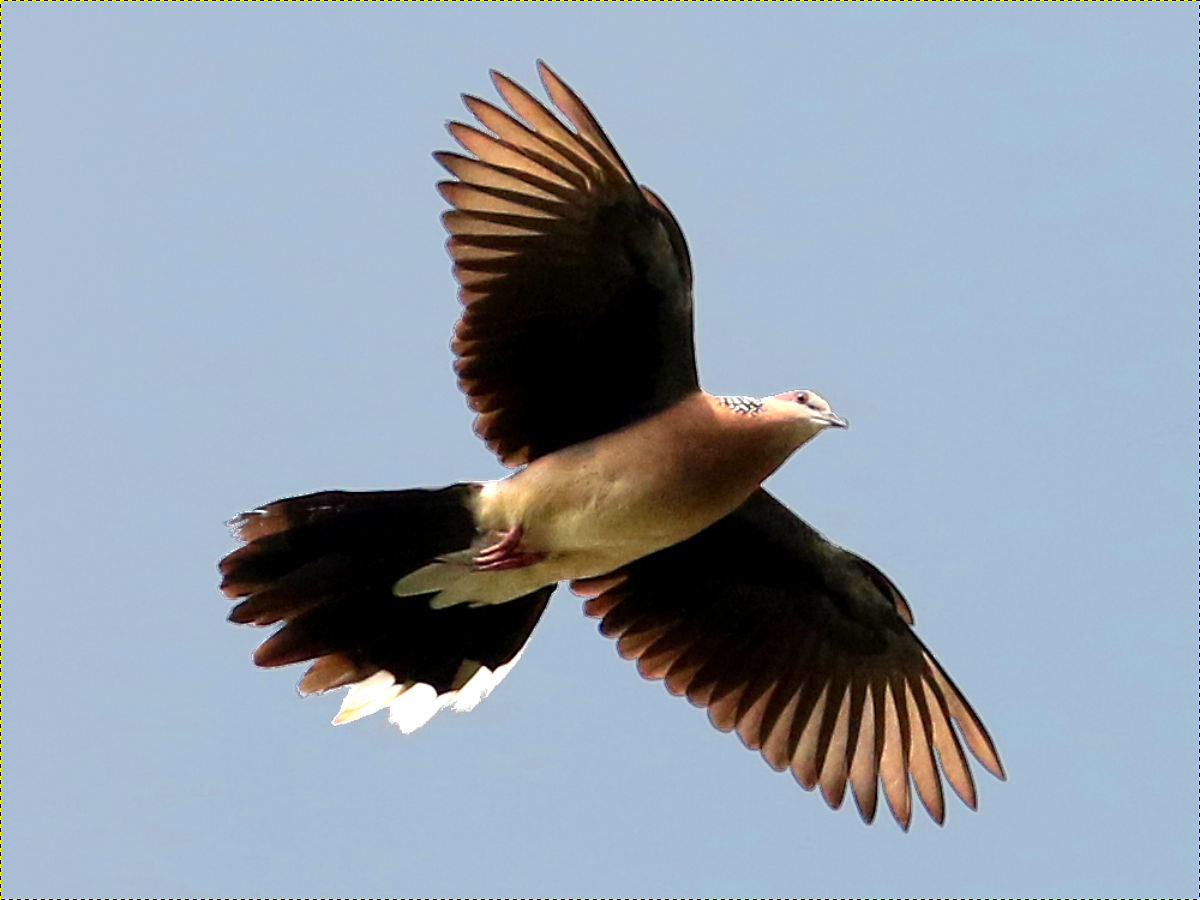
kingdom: Animalia
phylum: Chordata
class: Aves
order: Columbiformes
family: Columbidae
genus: Spilopelia
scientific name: Spilopelia chinensis
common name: Spotted dove
